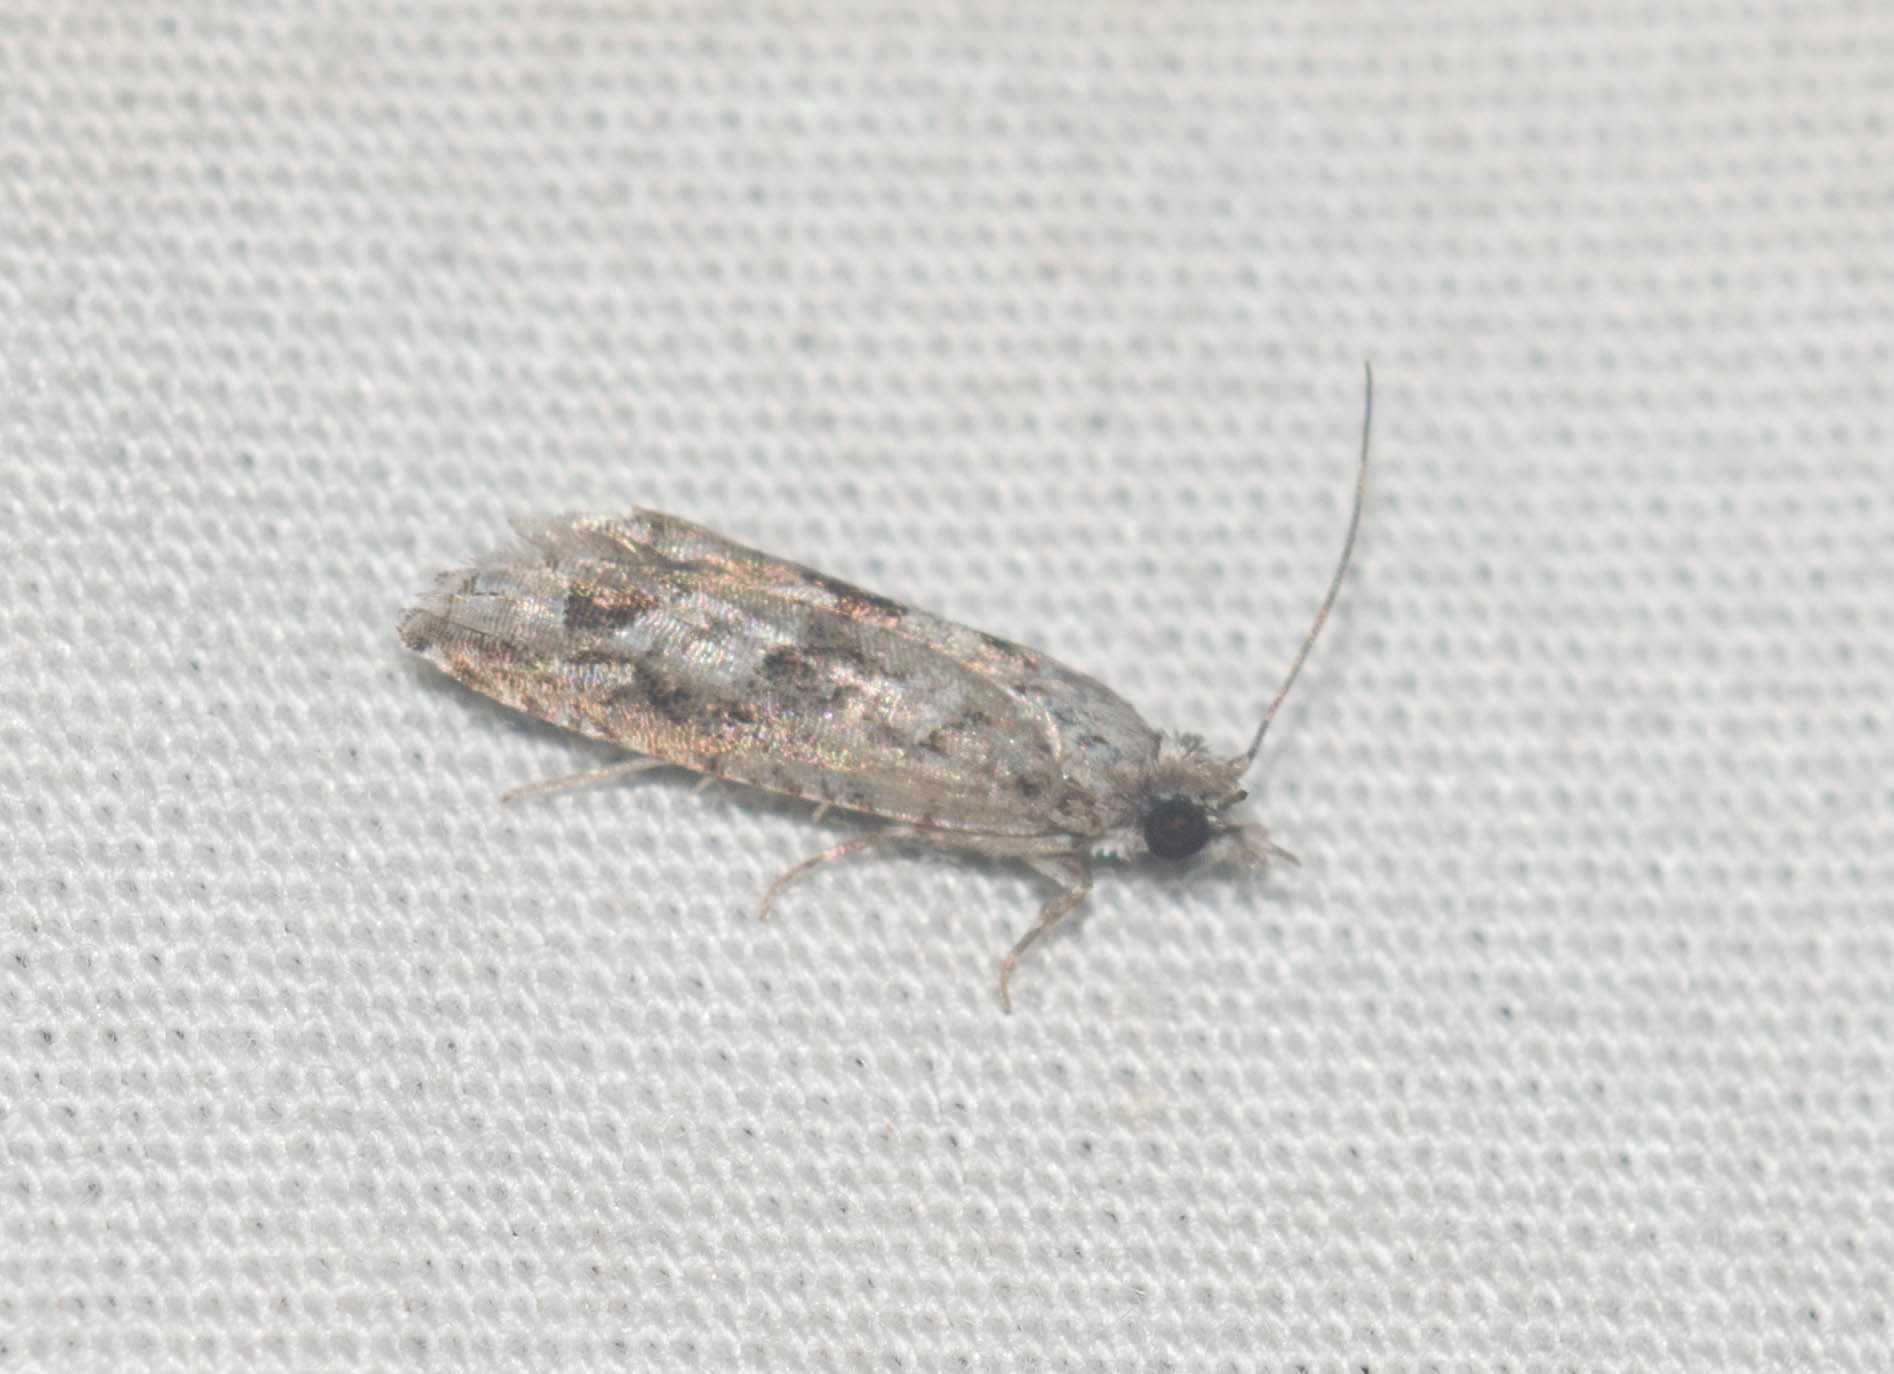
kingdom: Animalia
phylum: Arthropoda
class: Insecta
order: Lepidoptera
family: Tortricidae
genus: Eccoptocera
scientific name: Eccoptocera foetorivorans
